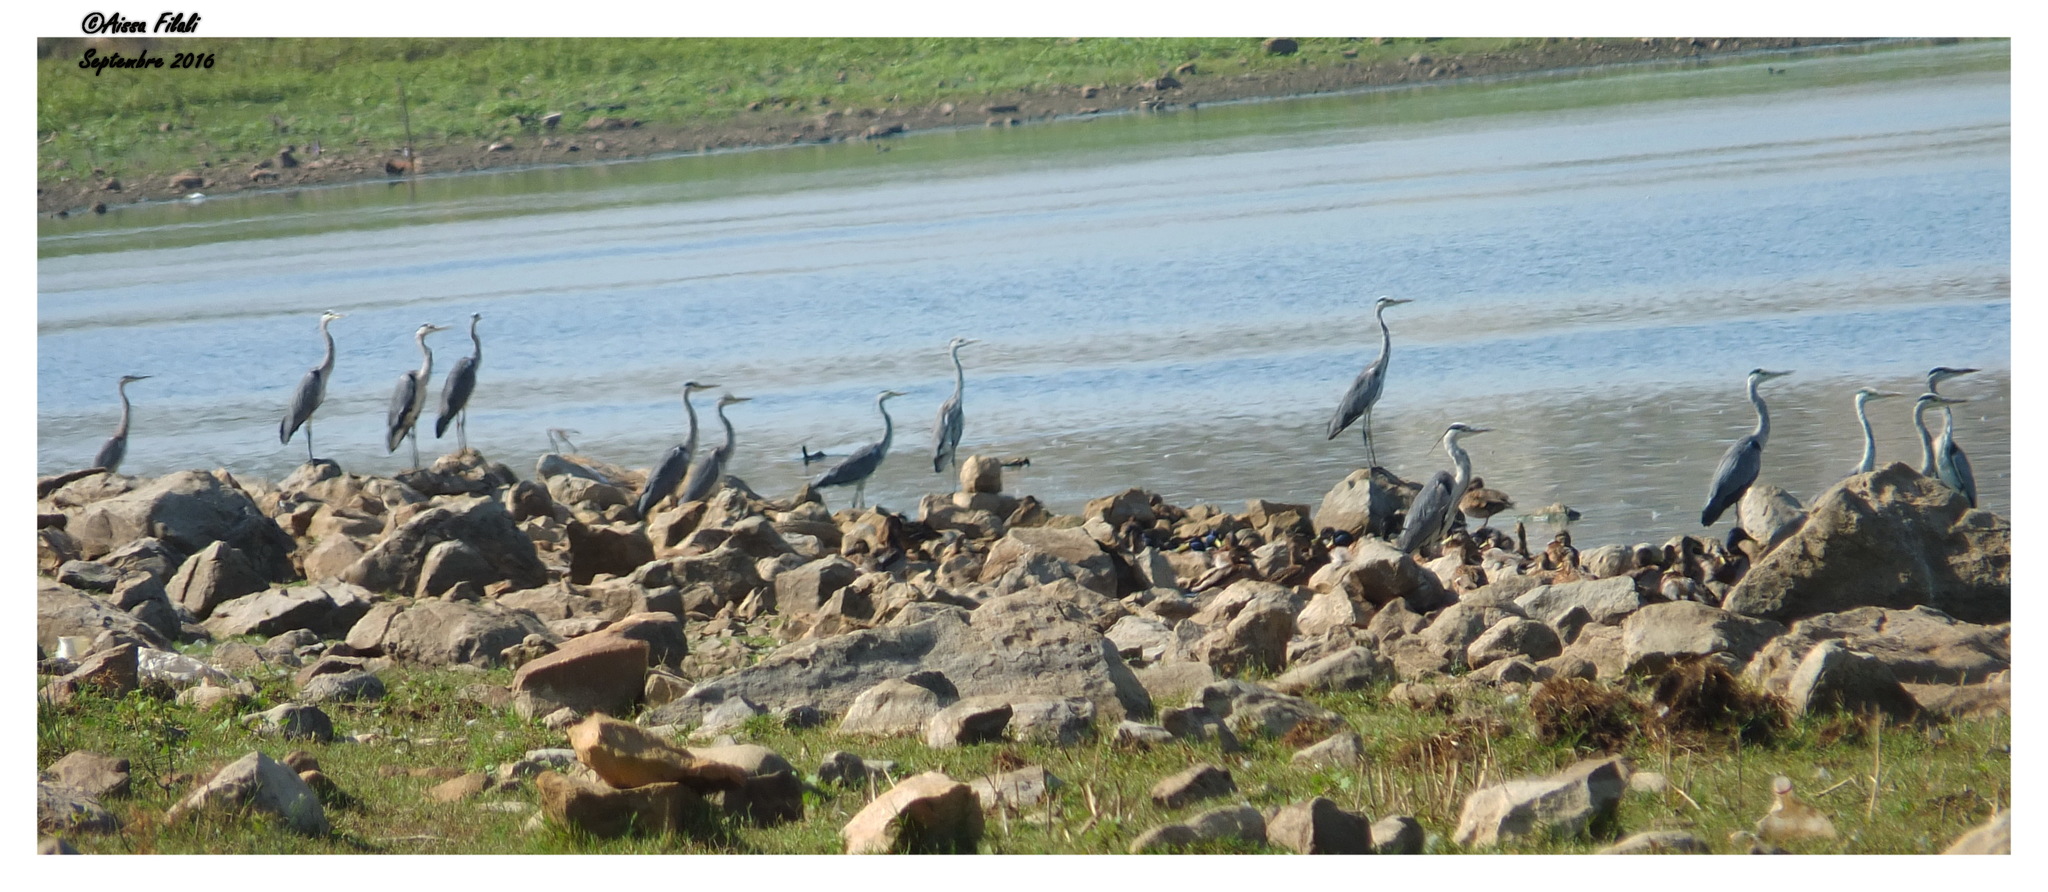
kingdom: Animalia
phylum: Chordata
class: Aves
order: Pelecaniformes
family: Ardeidae
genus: Ardea
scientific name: Ardea cinerea
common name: Grey heron
